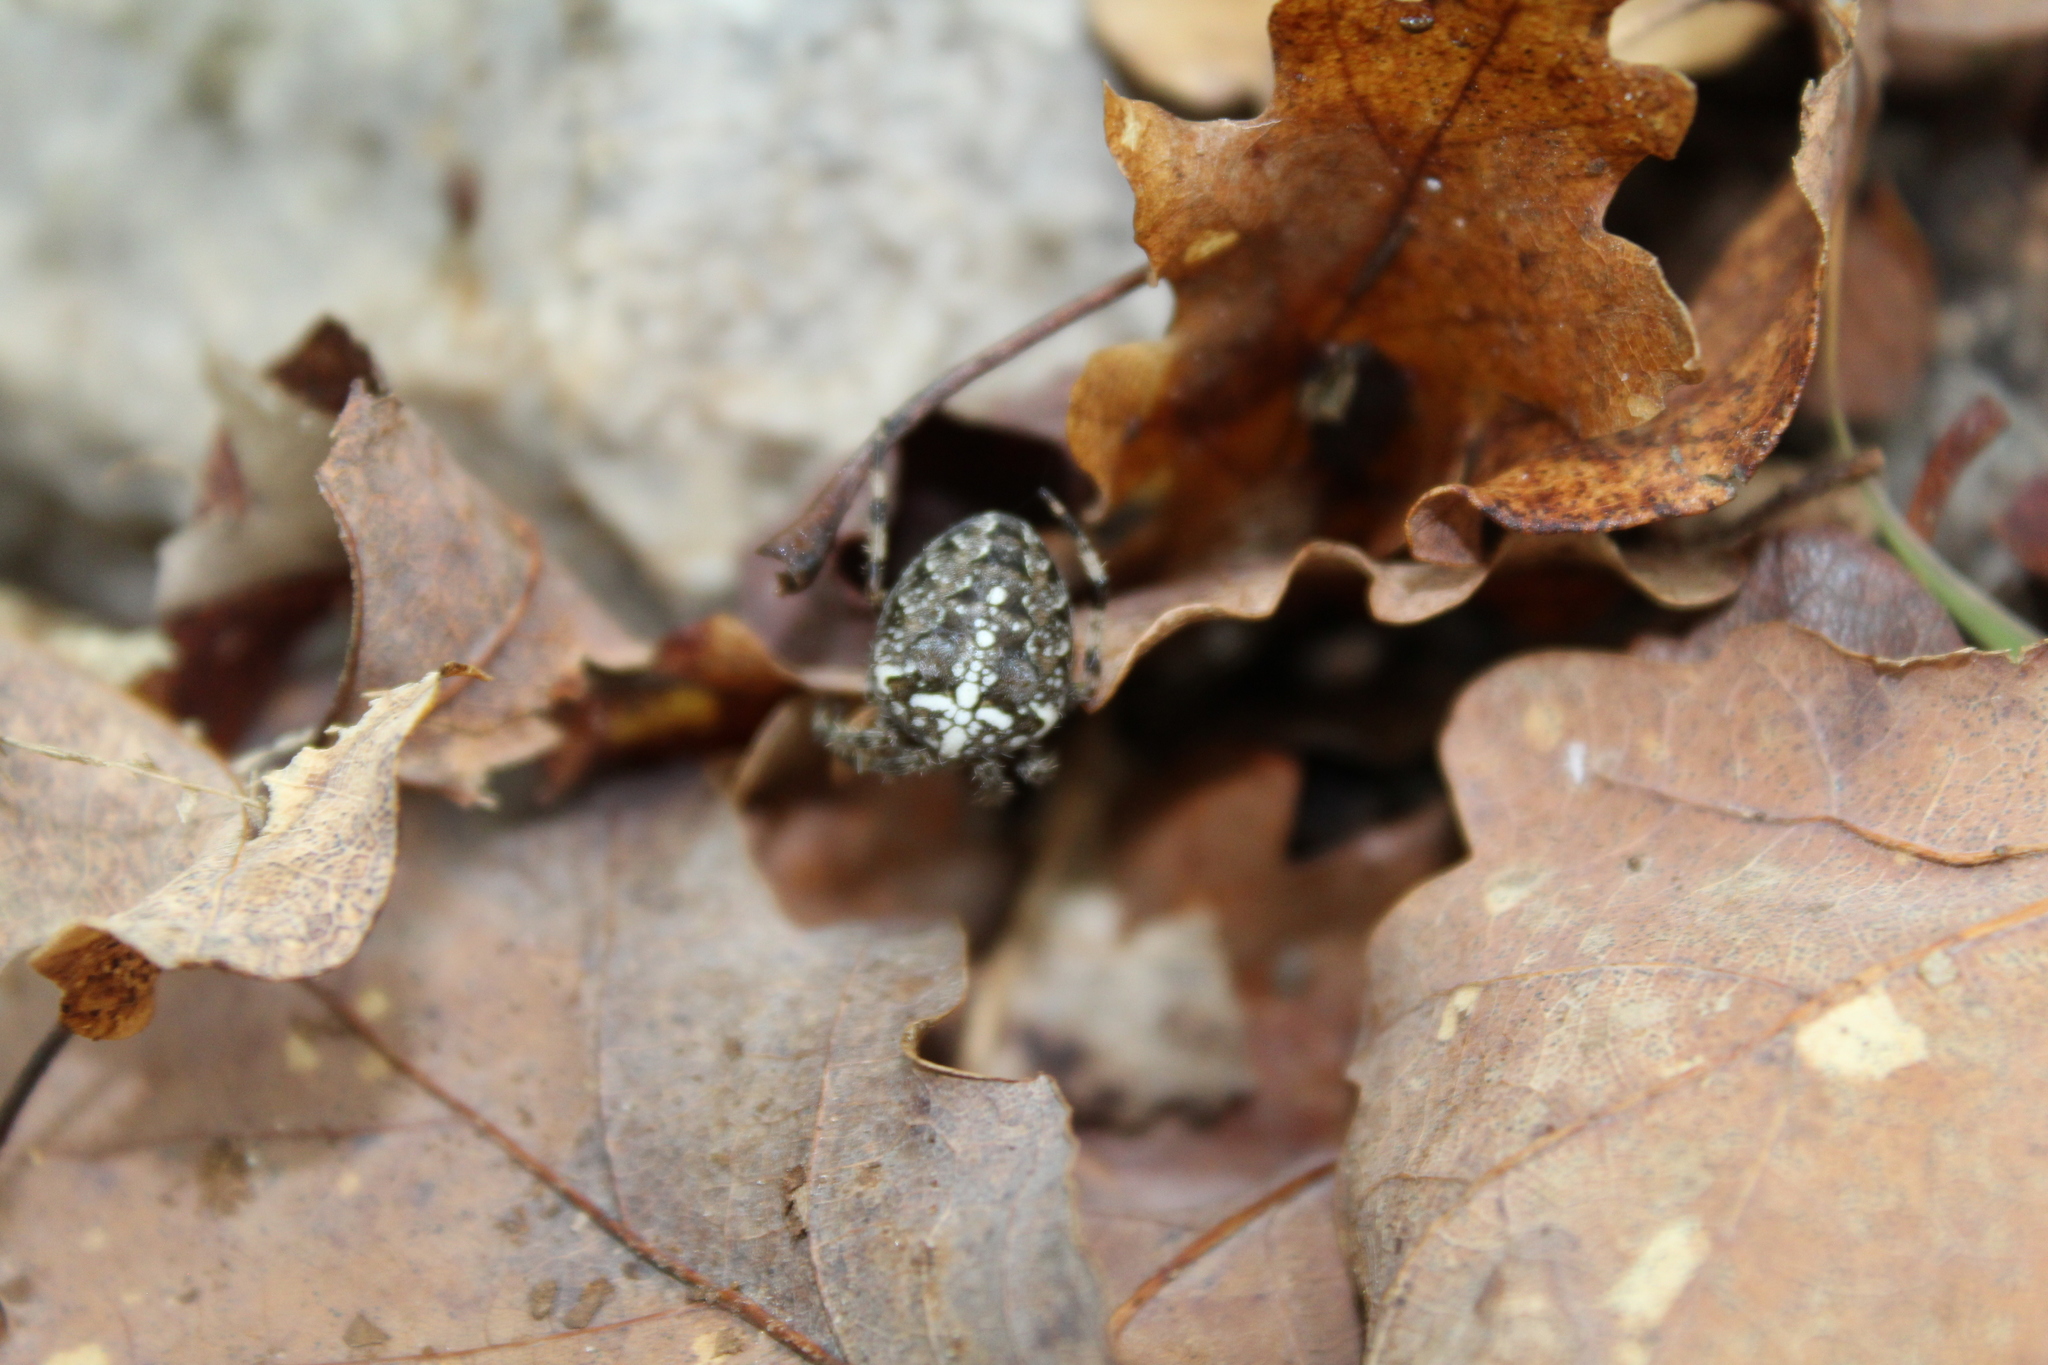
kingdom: Animalia
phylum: Arthropoda
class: Arachnida
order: Araneae
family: Araneidae
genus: Araneus
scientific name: Araneus diadematus
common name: Cross orbweaver
